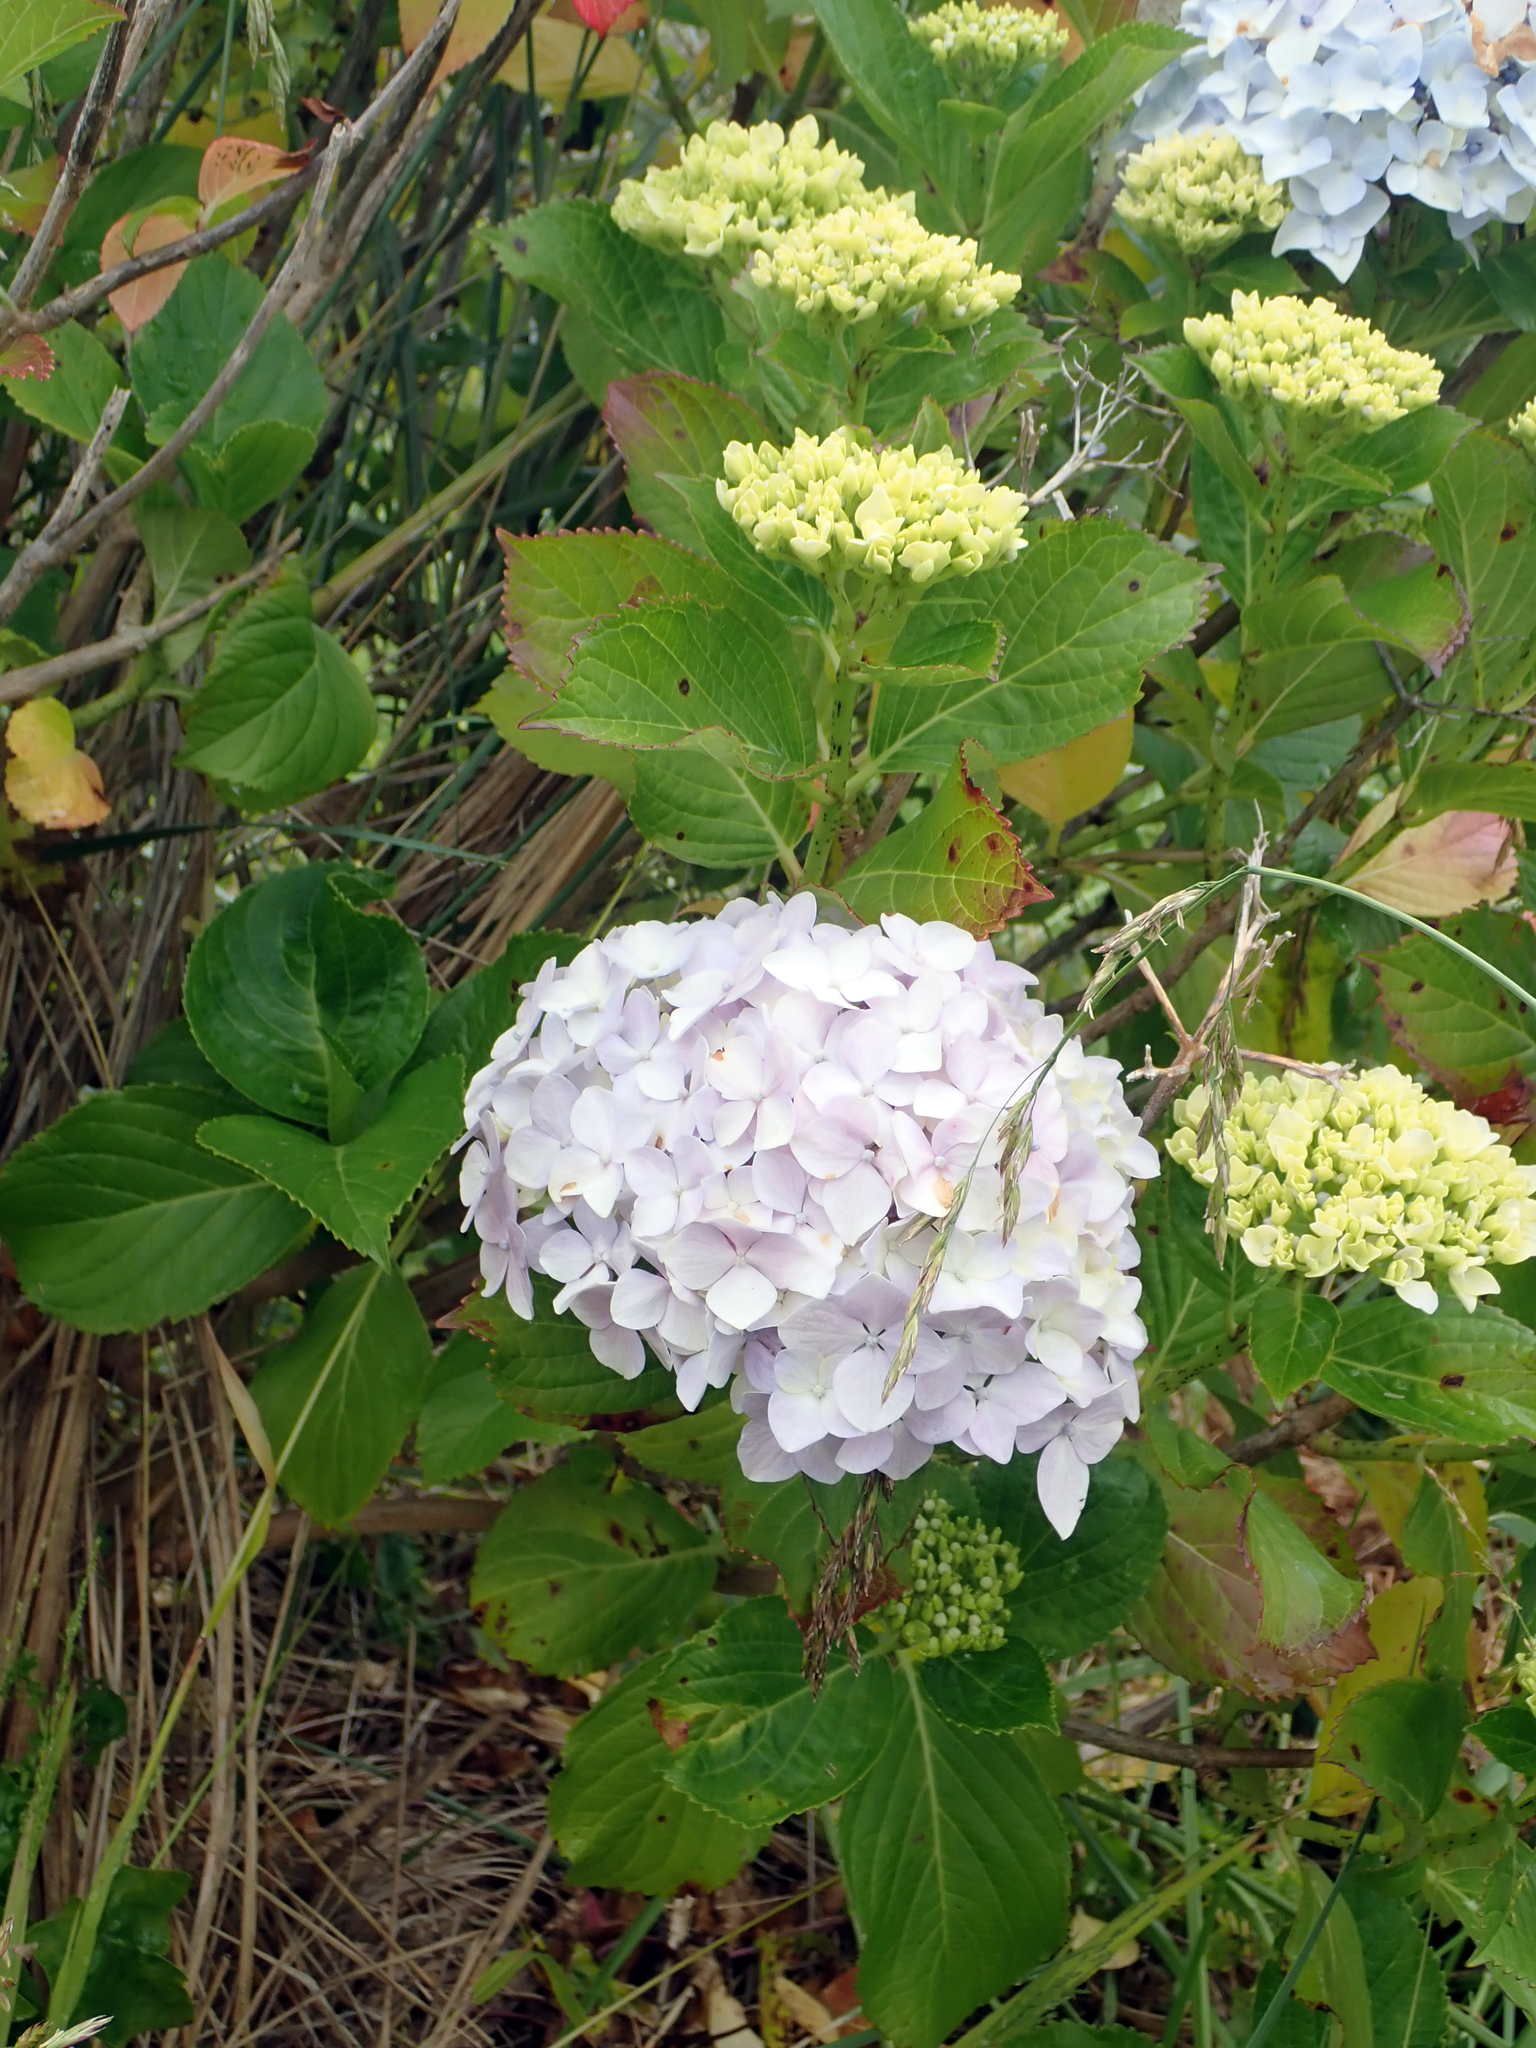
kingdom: Plantae
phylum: Tracheophyta
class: Magnoliopsida
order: Cornales
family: Hydrangeaceae
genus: Hydrangea
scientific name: Hydrangea macrophylla
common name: Hydrangea
